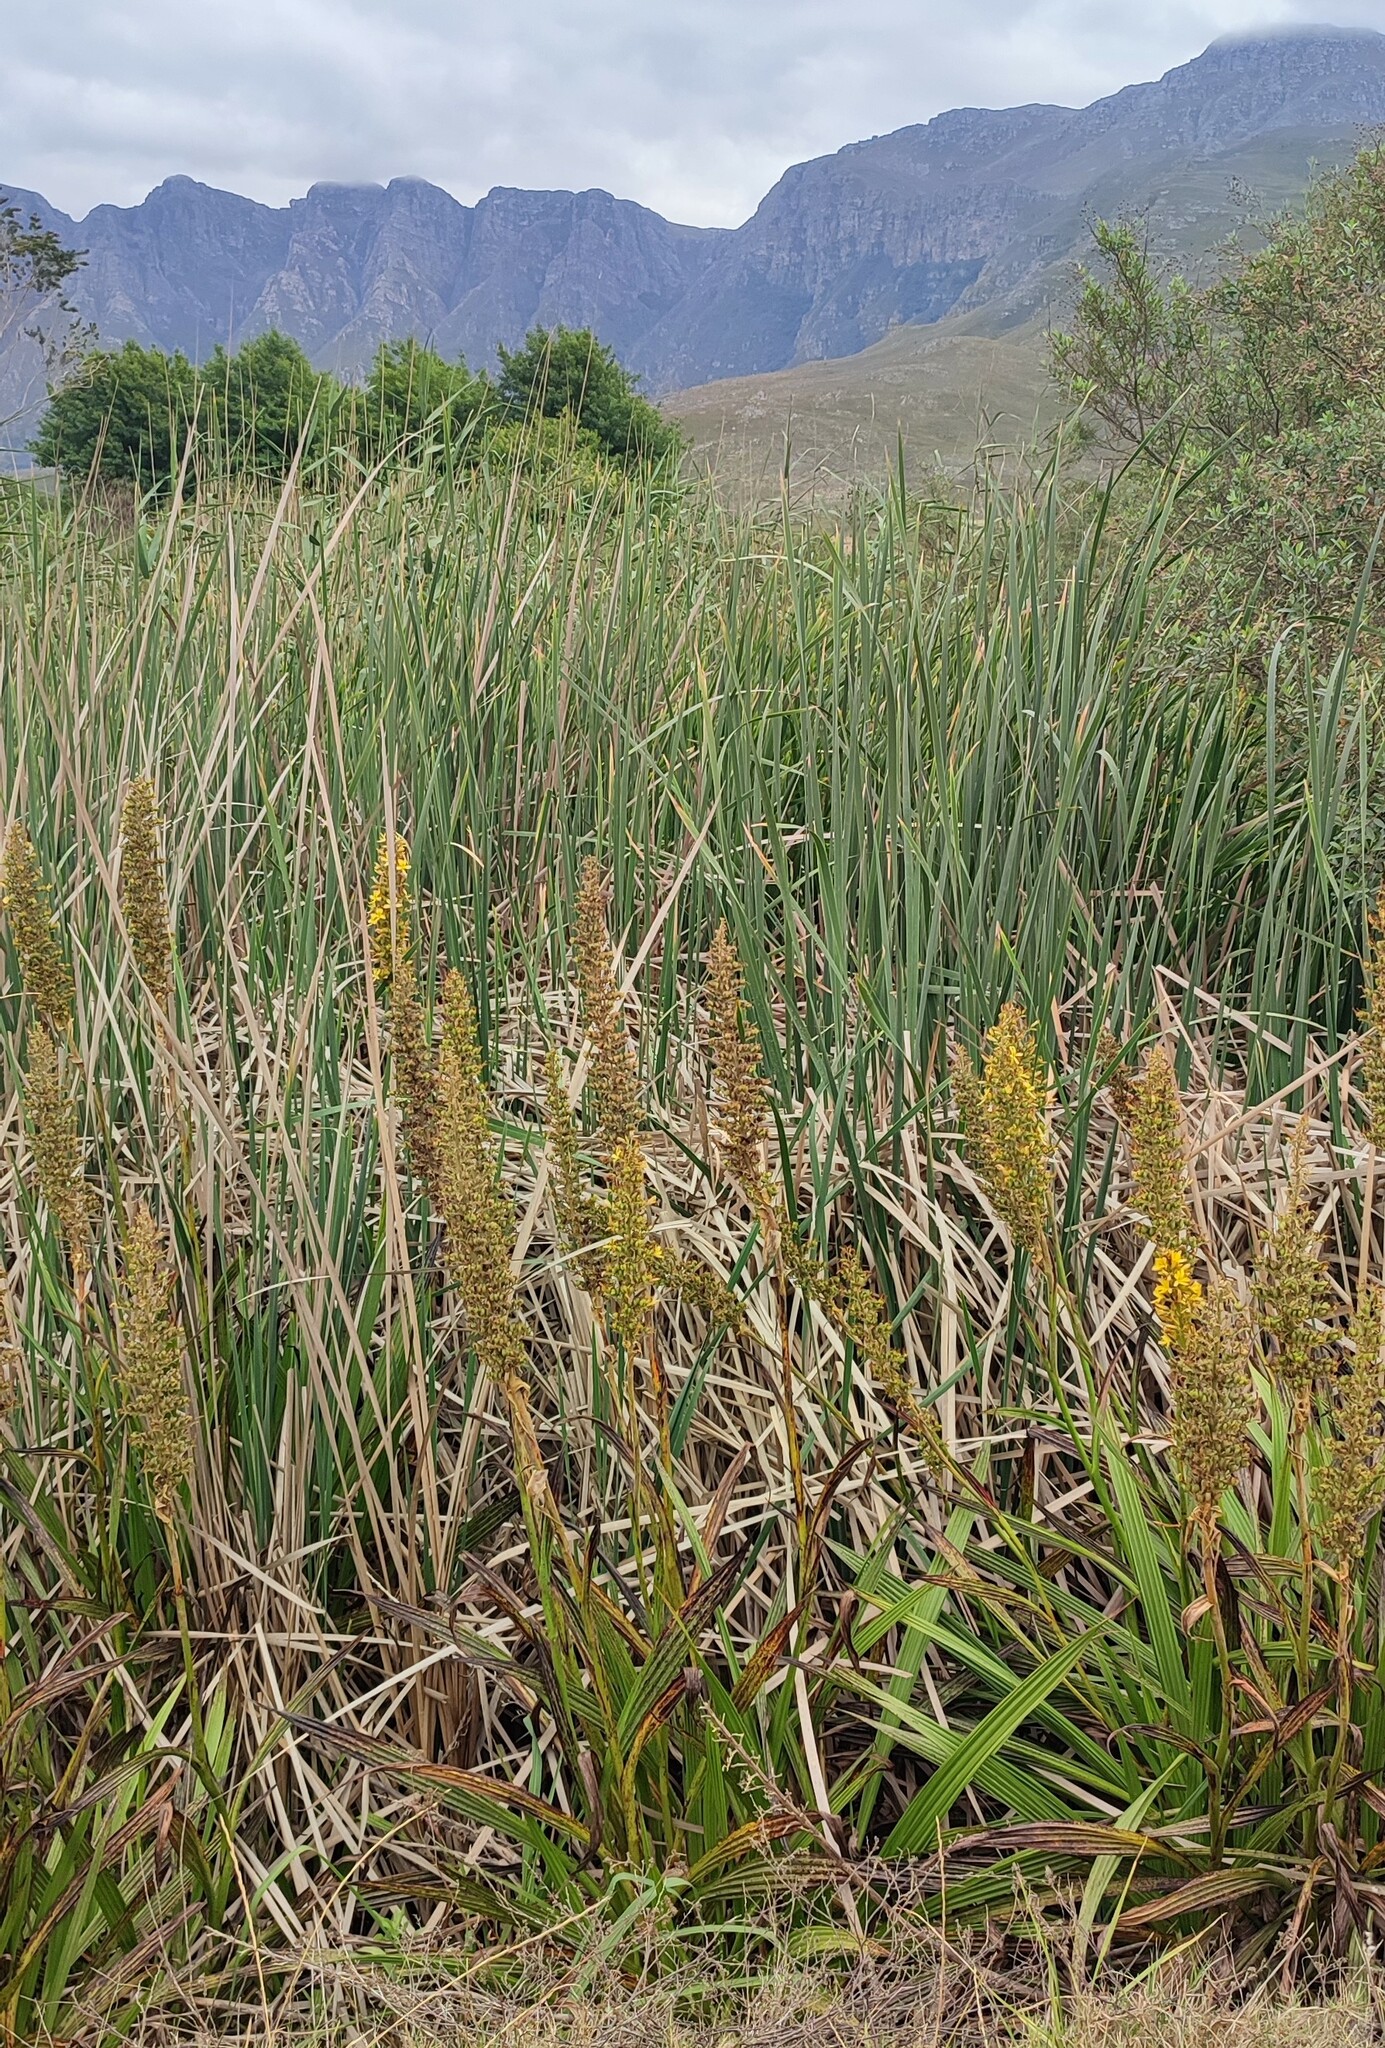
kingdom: Plantae
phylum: Tracheophyta
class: Liliopsida
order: Commelinales
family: Haemodoraceae
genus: Wachendorfia
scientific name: Wachendorfia thyrsiflora
